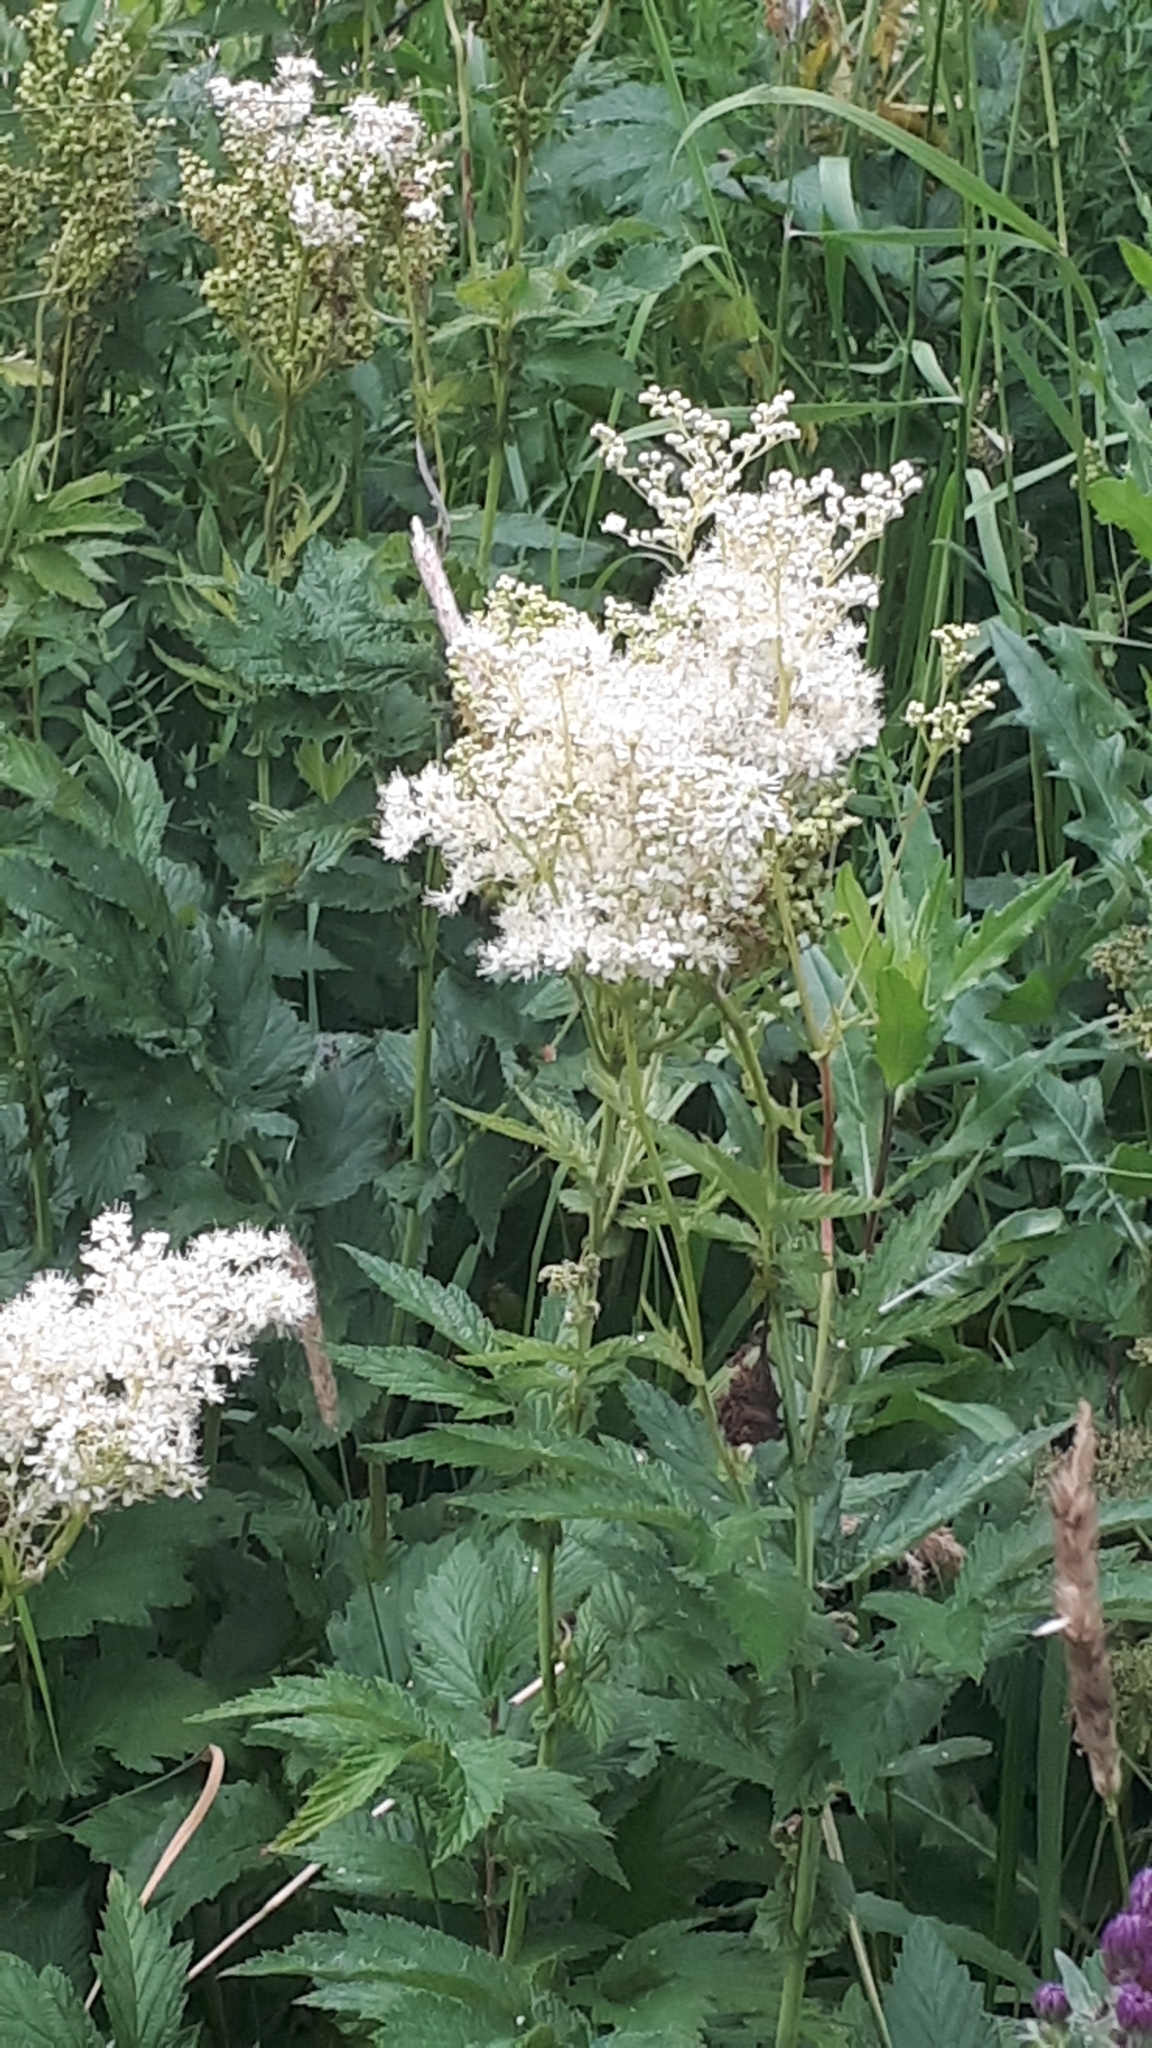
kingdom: Plantae
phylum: Tracheophyta
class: Magnoliopsida
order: Rosales
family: Rosaceae
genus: Filipendula
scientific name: Filipendula ulmaria
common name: Meadowsweet
